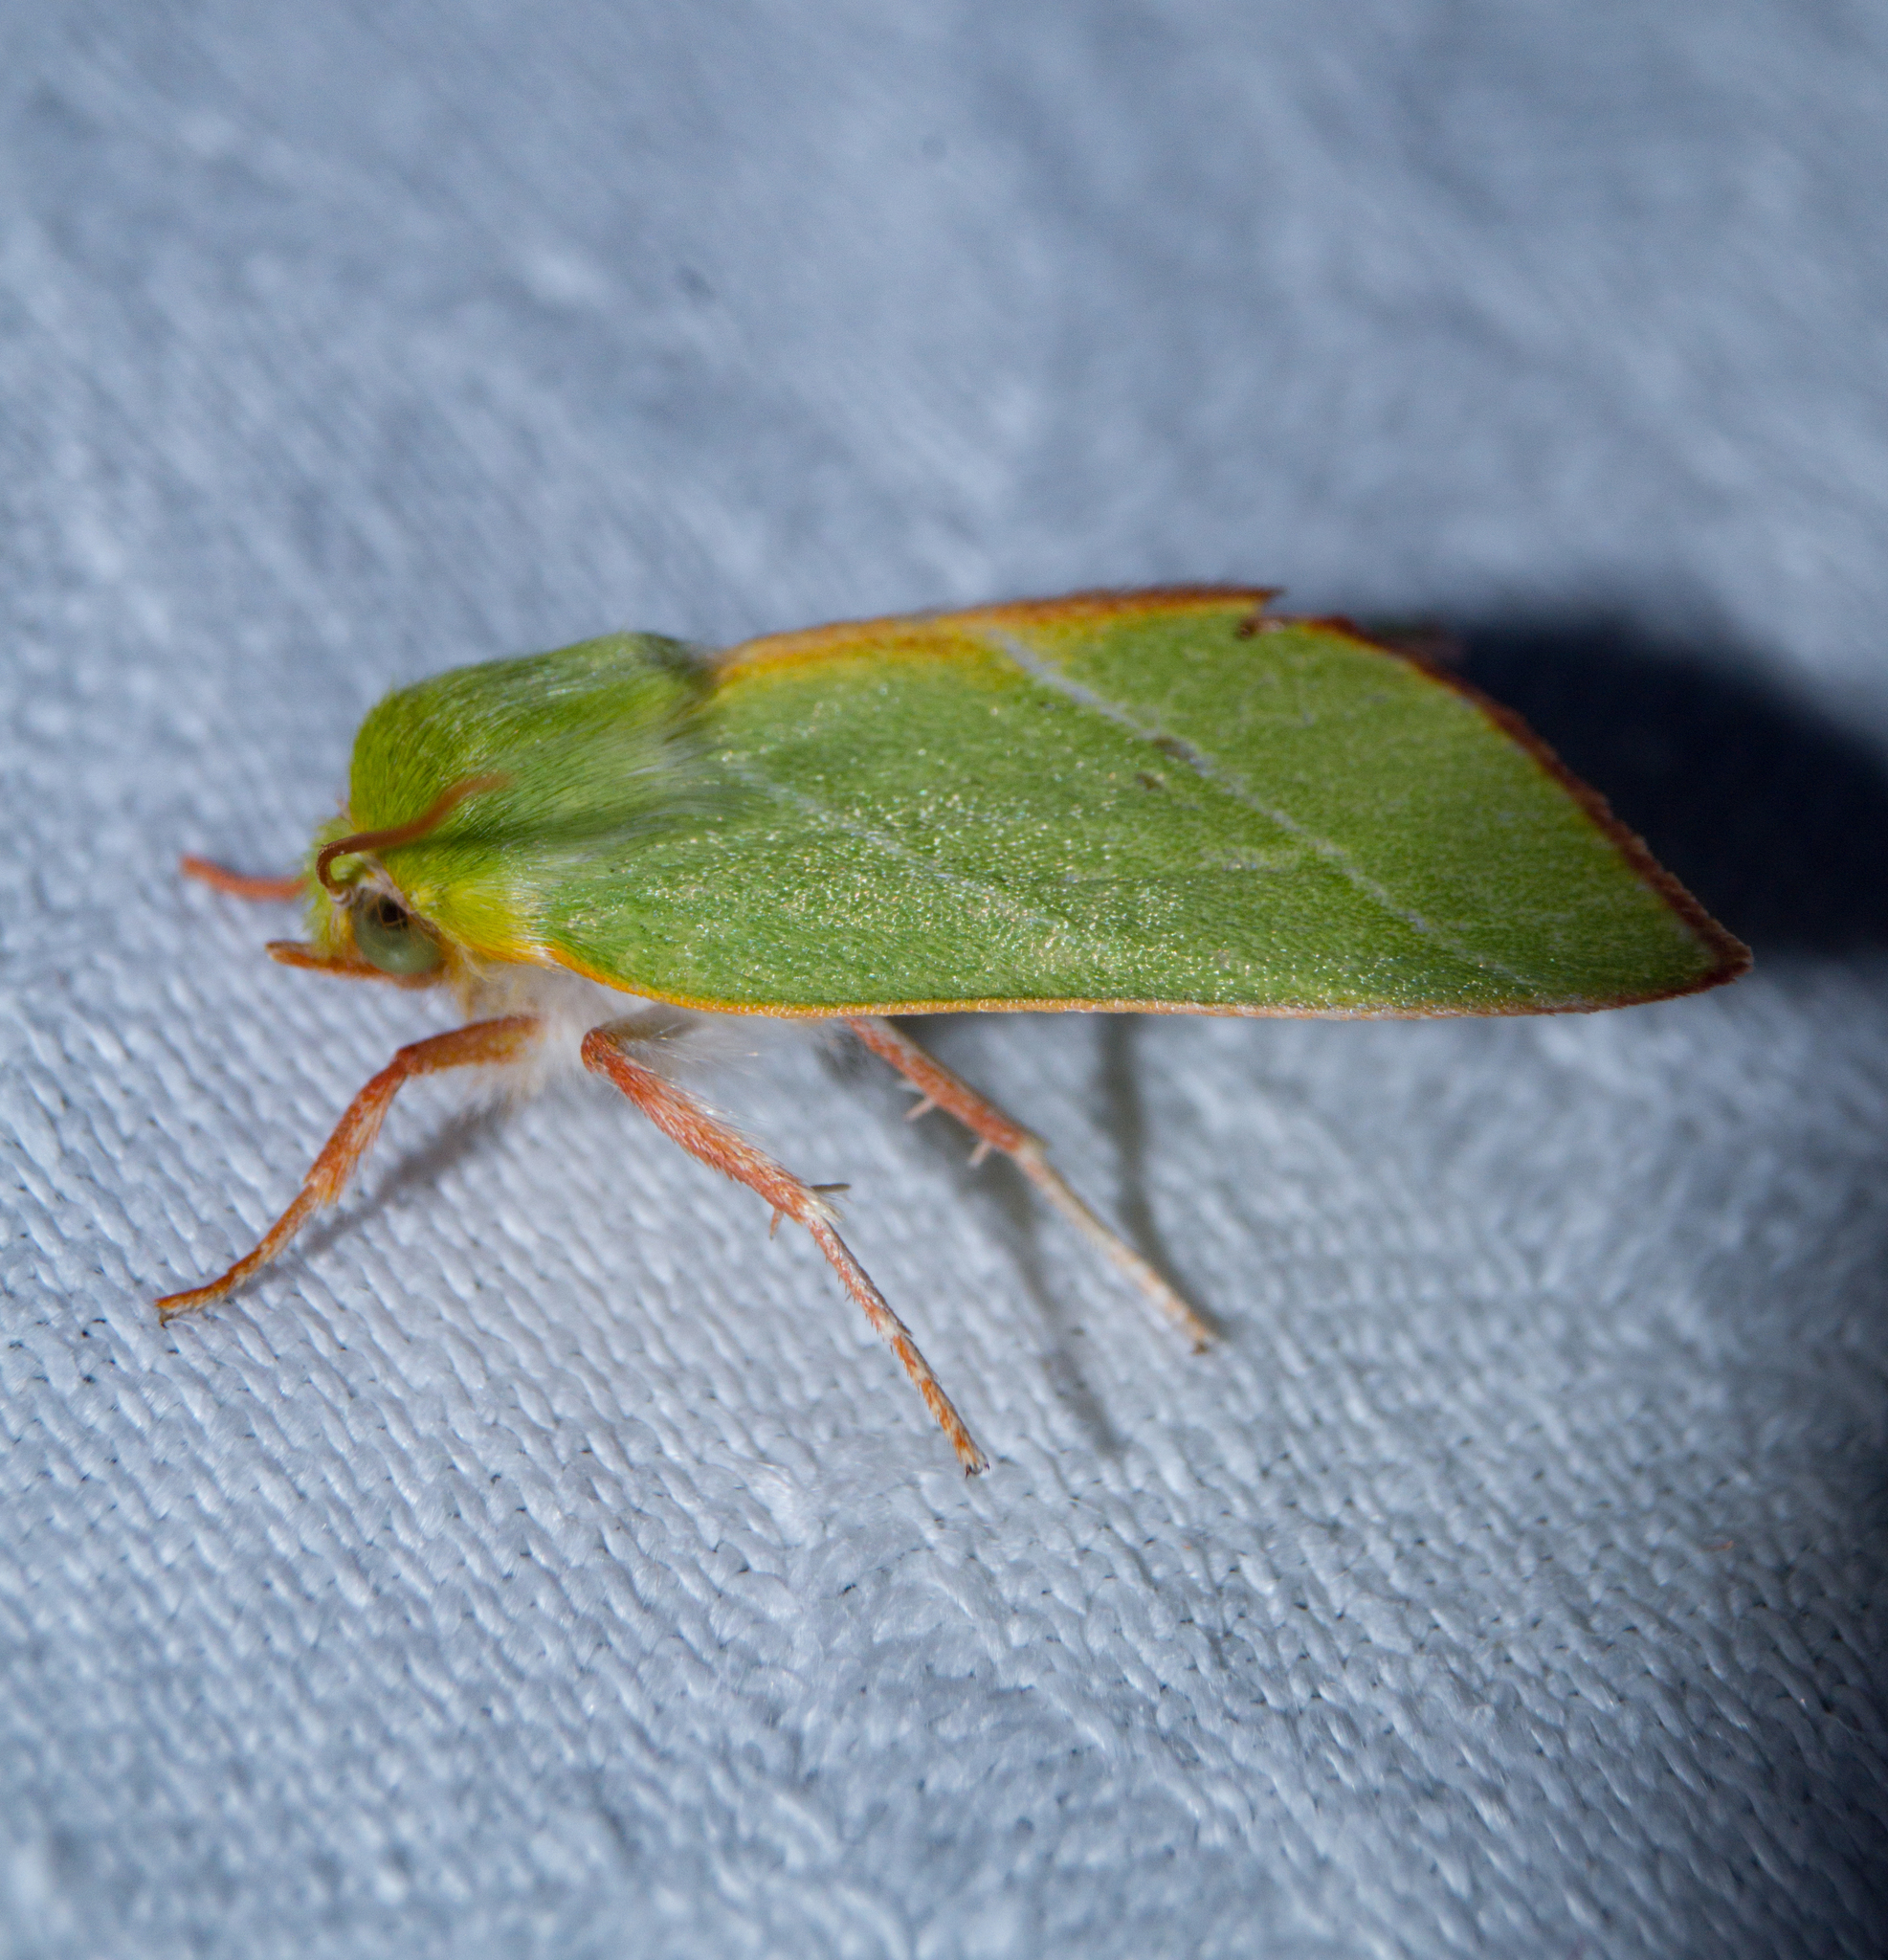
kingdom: Animalia
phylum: Arthropoda
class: Insecta
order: Lepidoptera
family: Nolidae
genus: Pseudoips
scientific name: Pseudoips prasinana
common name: Green silver-lines
